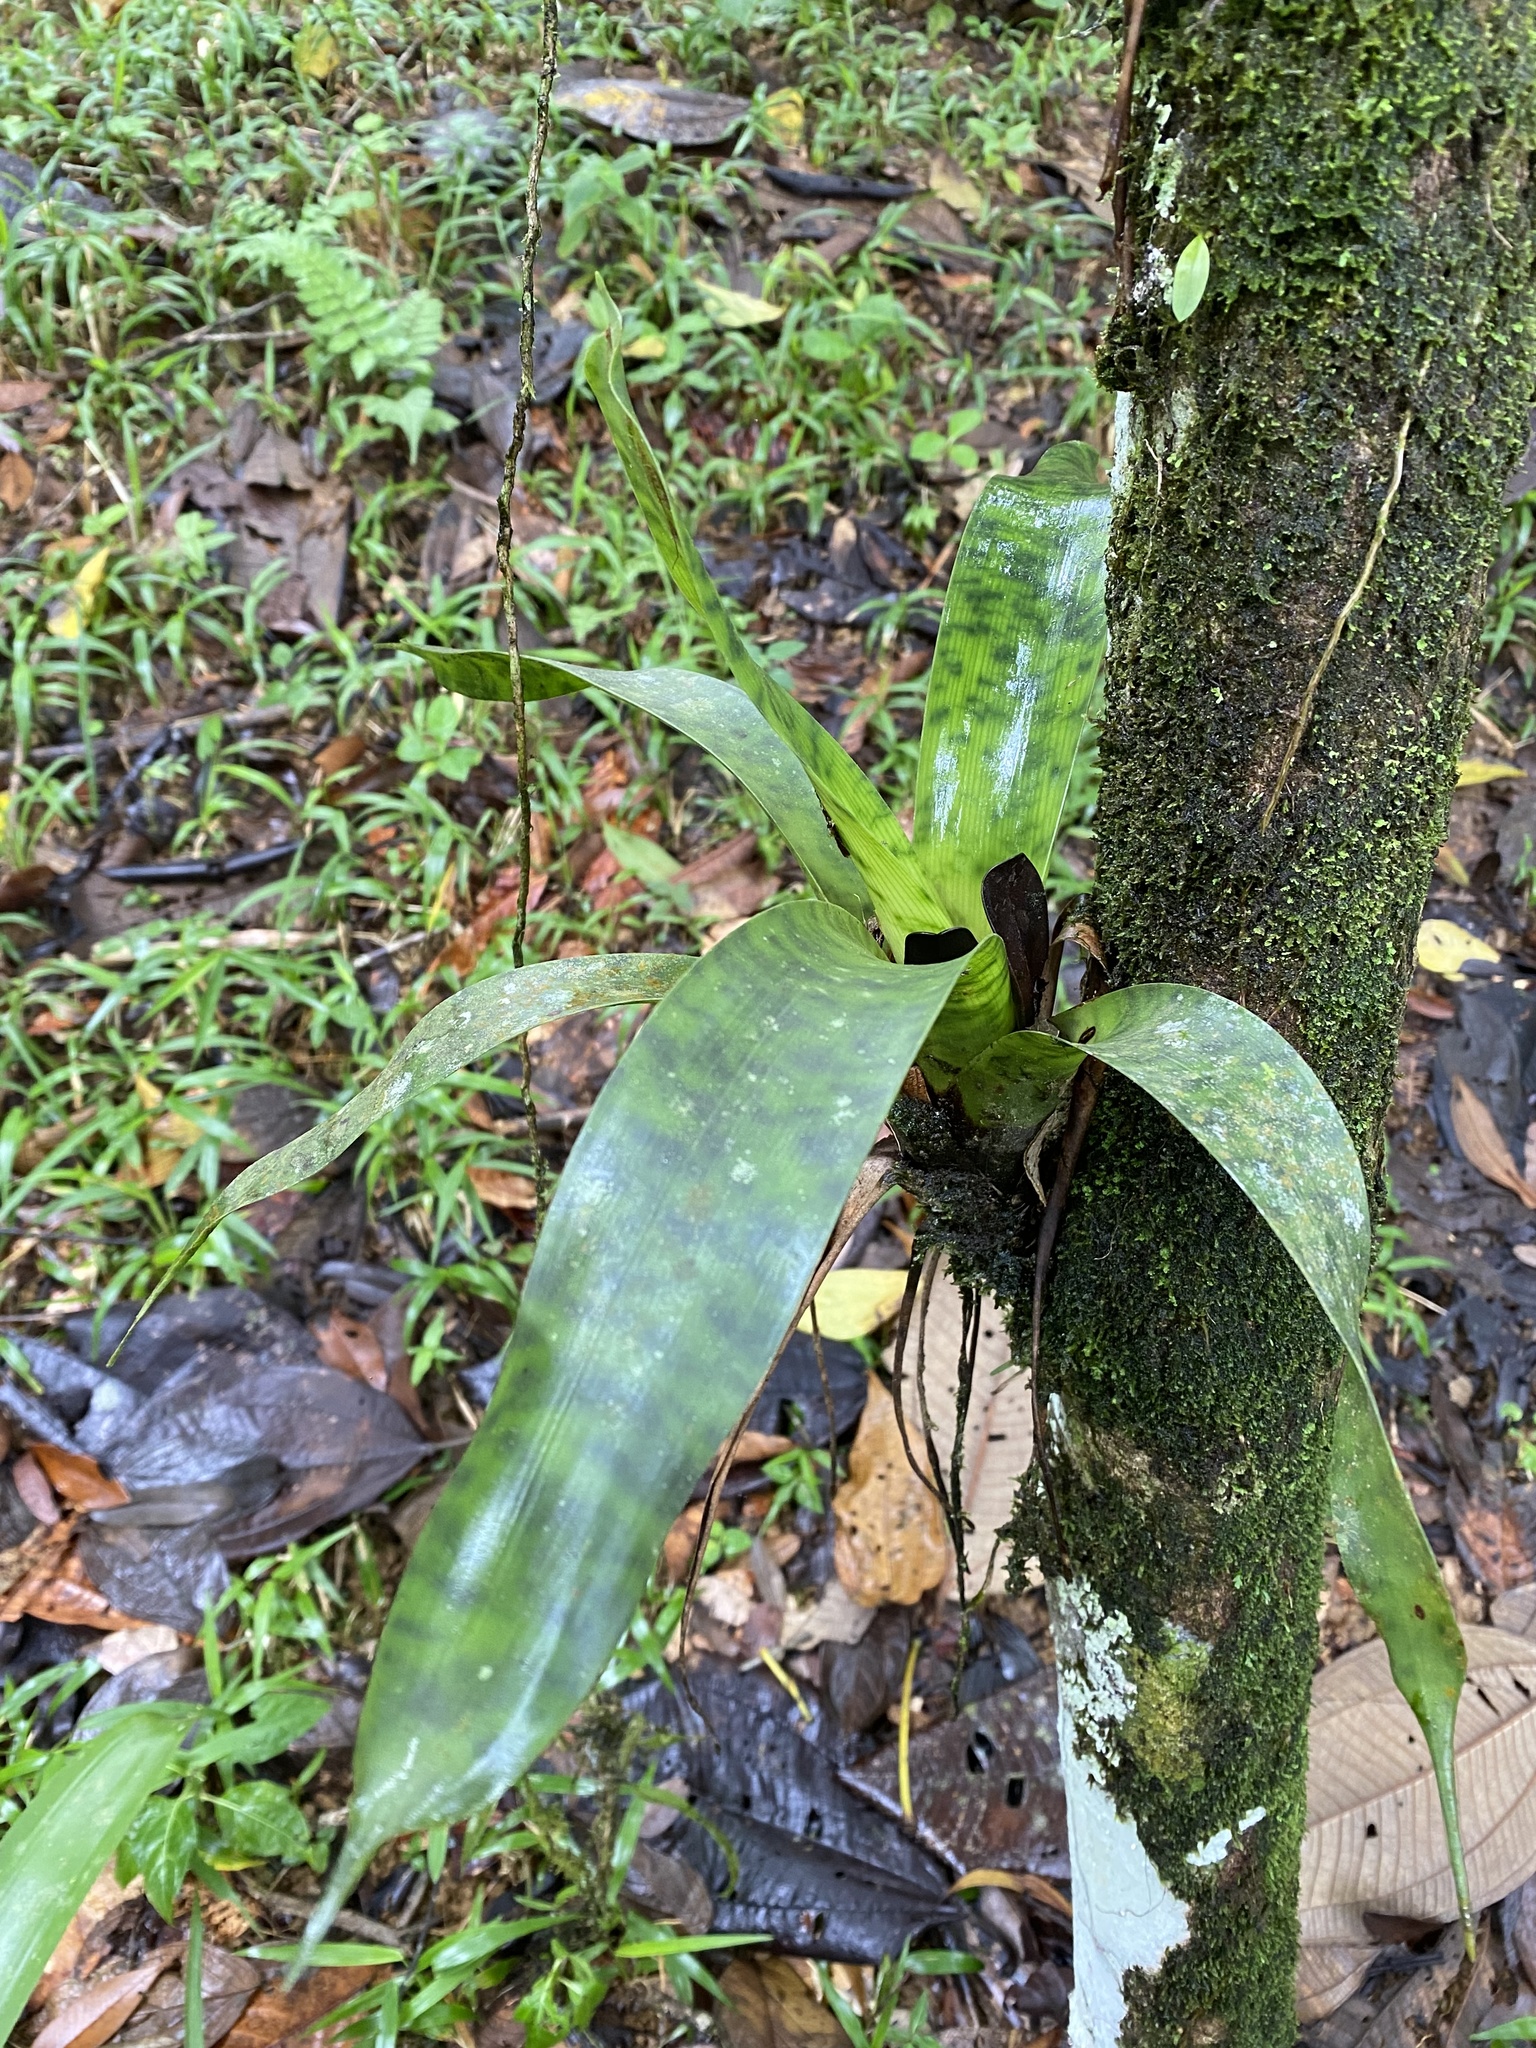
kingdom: Plantae
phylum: Tracheophyta
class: Liliopsida
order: Poales
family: Bromeliaceae
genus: Werauhia
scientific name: Werauhia kupperiana
